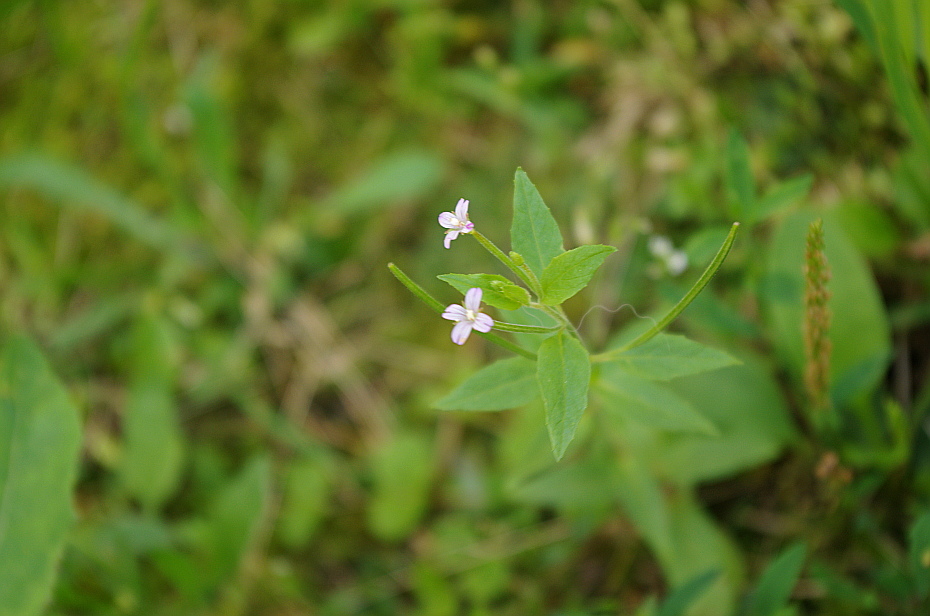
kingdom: Plantae
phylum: Tracheophyta
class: Magnoliopsida
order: Myrtales
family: Onagraceae
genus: Epilobium
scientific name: Epilobium ciliatum
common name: American willowherb
